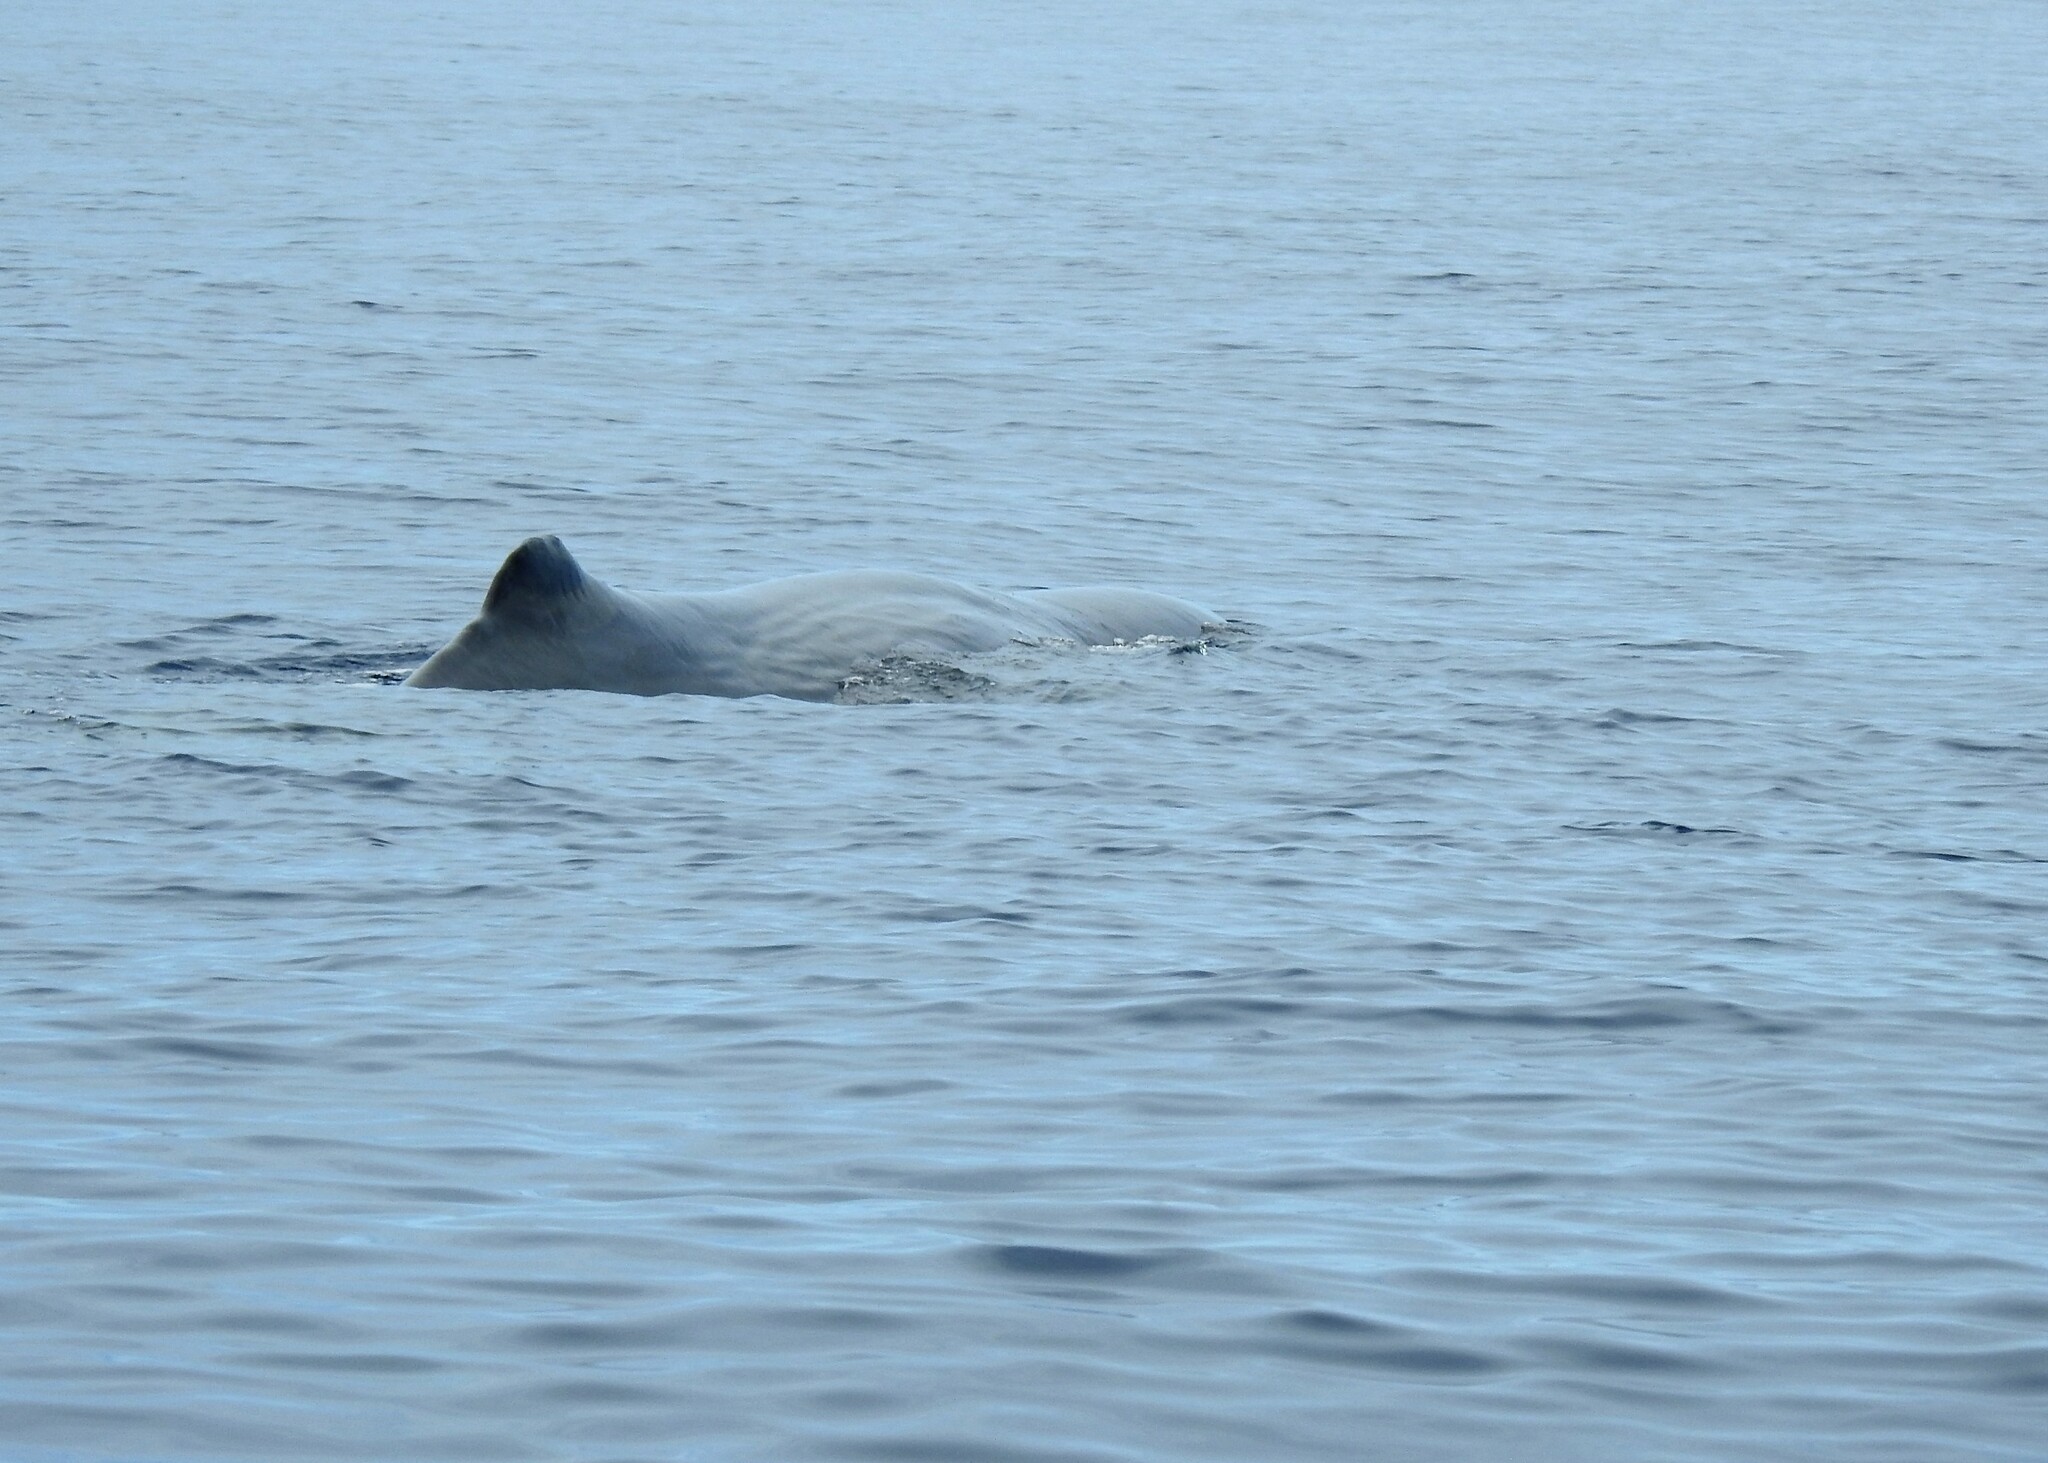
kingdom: Animalia
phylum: Chordata
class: Mammalia
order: Cetacea
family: Physeteridae
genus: Physeter
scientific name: Physeter macrocephalus
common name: Sperm whale
